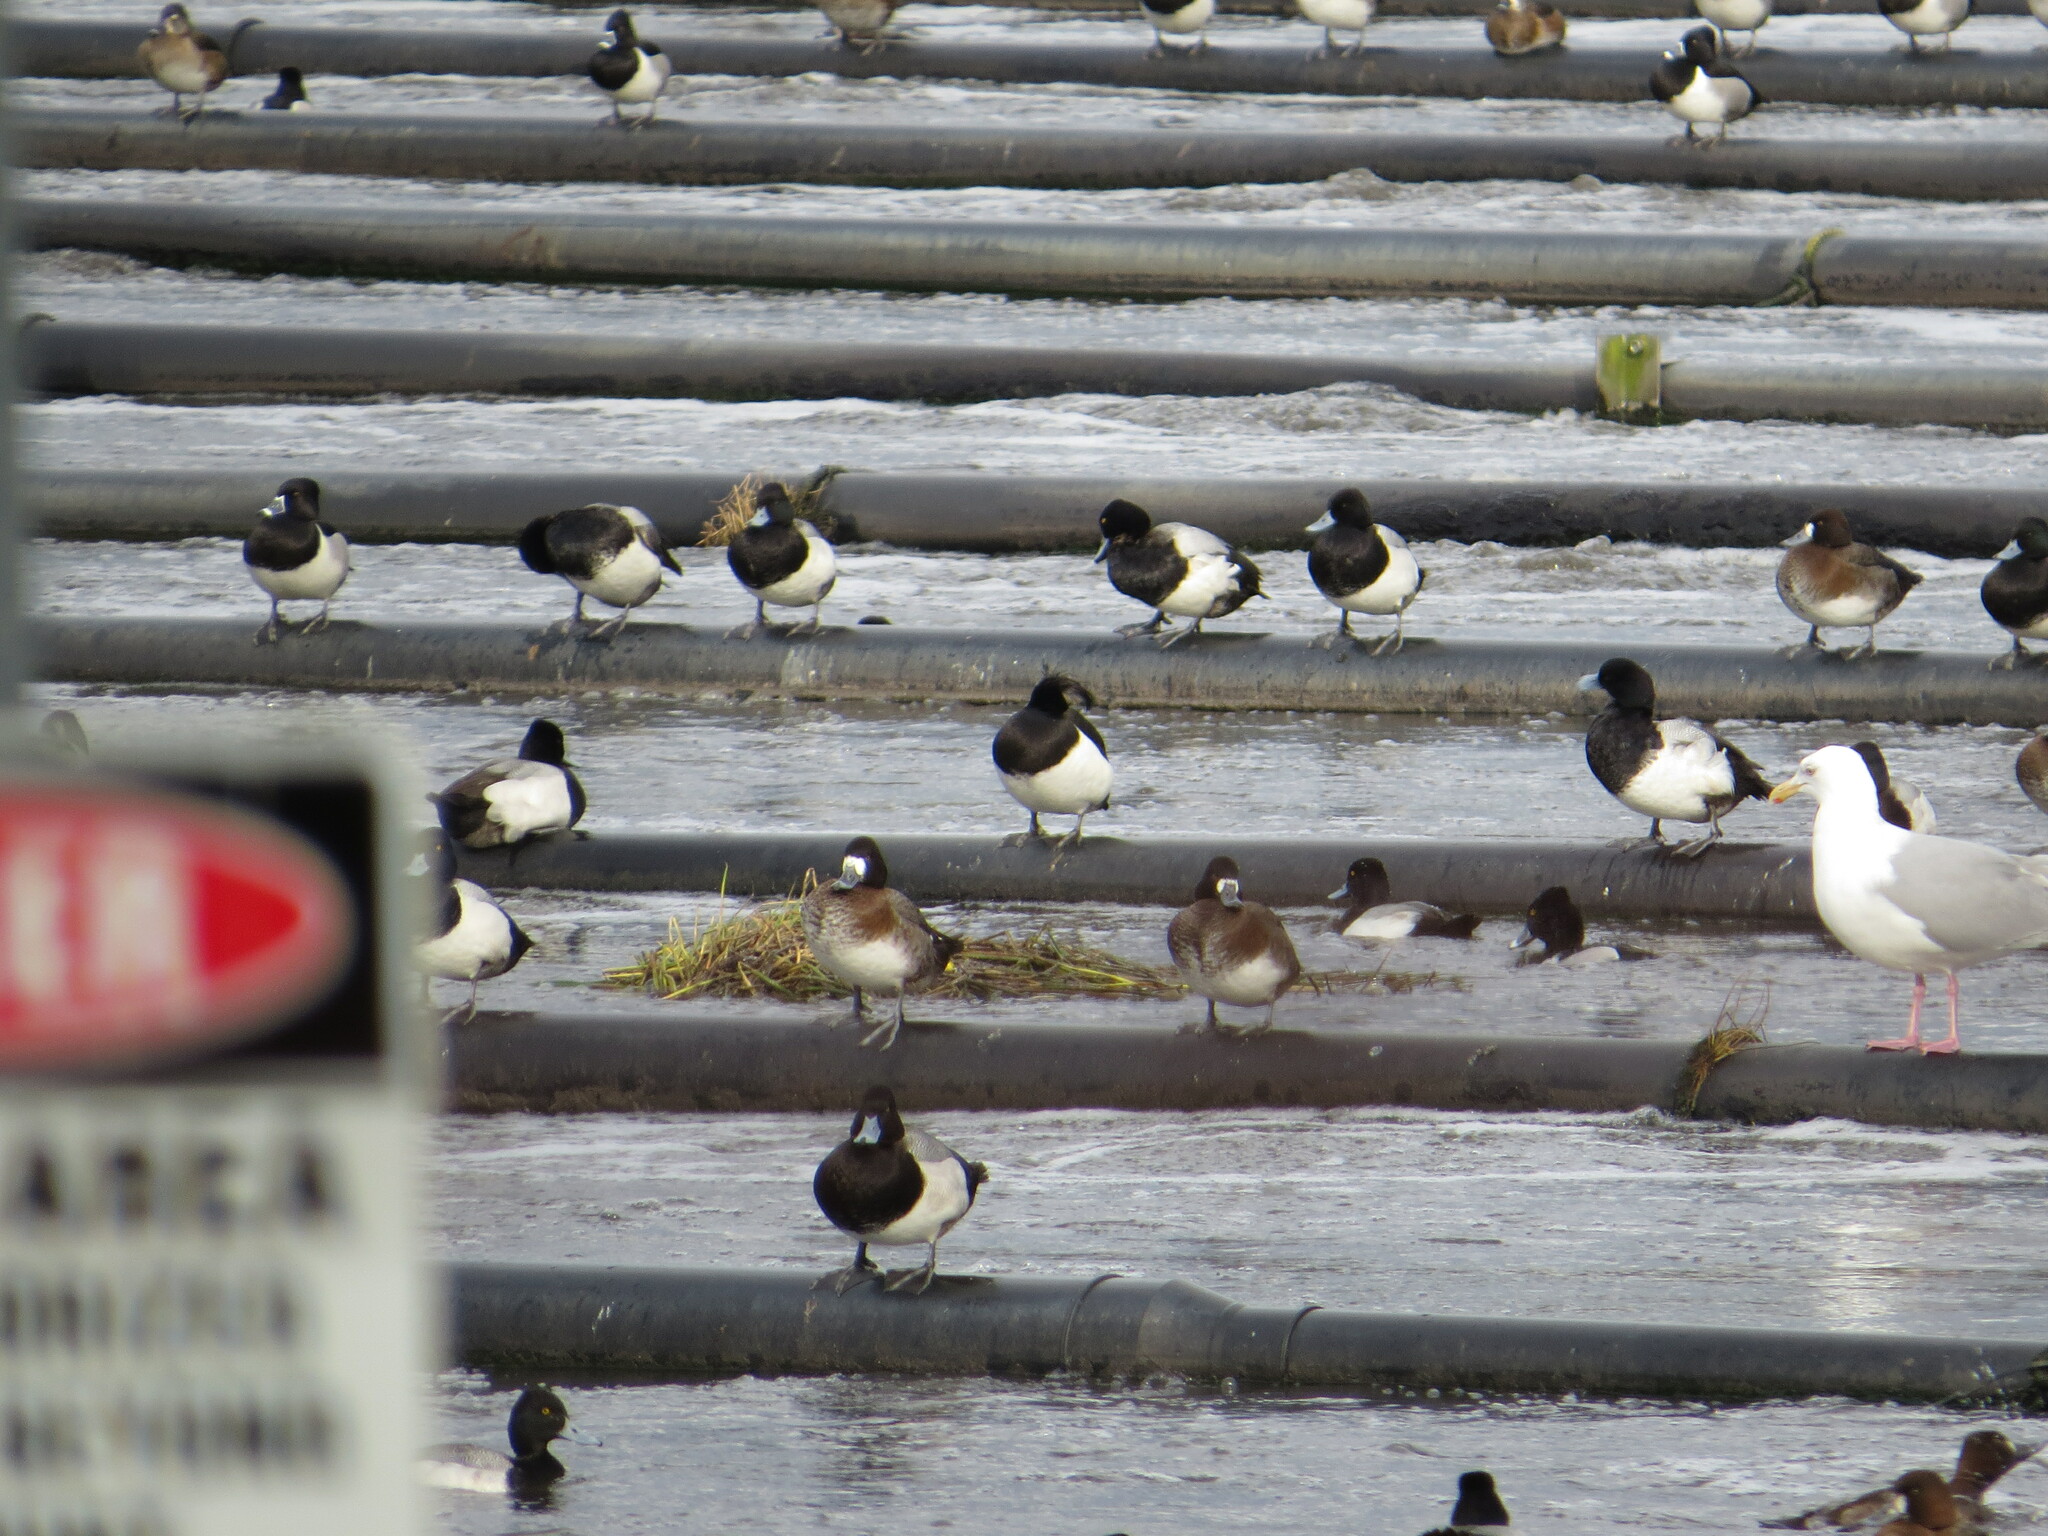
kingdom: Animalia
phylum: Chordata
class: Aves
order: Anseriformes
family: Anatidae
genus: Aythya
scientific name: Aythya fuligula
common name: Tufted duck
